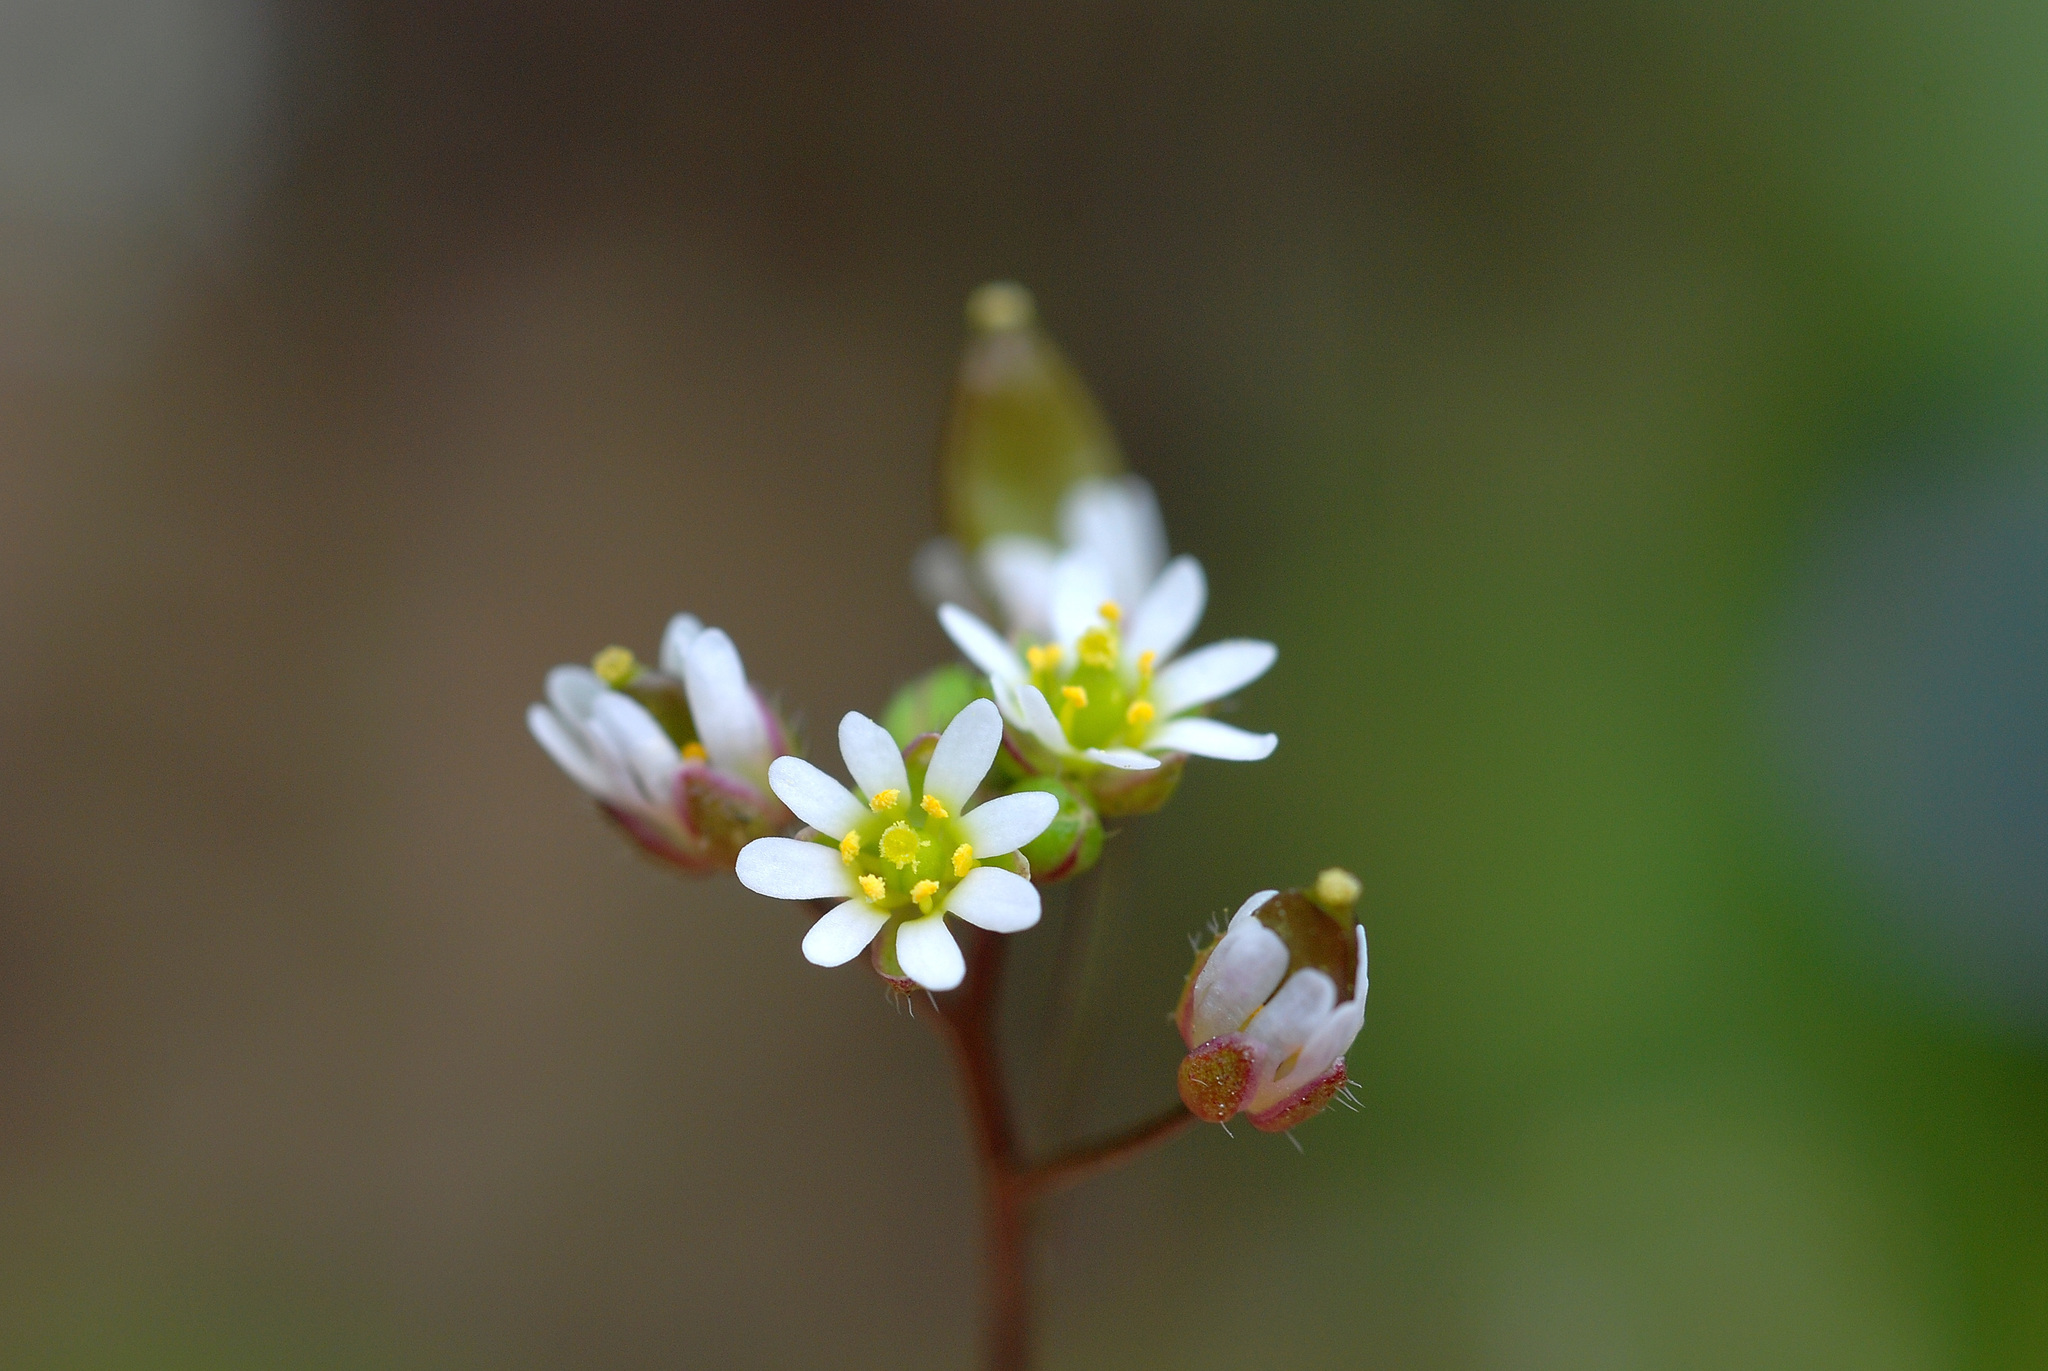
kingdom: Plantae
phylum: Tracheophyta
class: Magnoliopsida
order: Brassicales
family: Brassicaceae
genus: Draba
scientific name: Draba verna
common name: Spring draba
